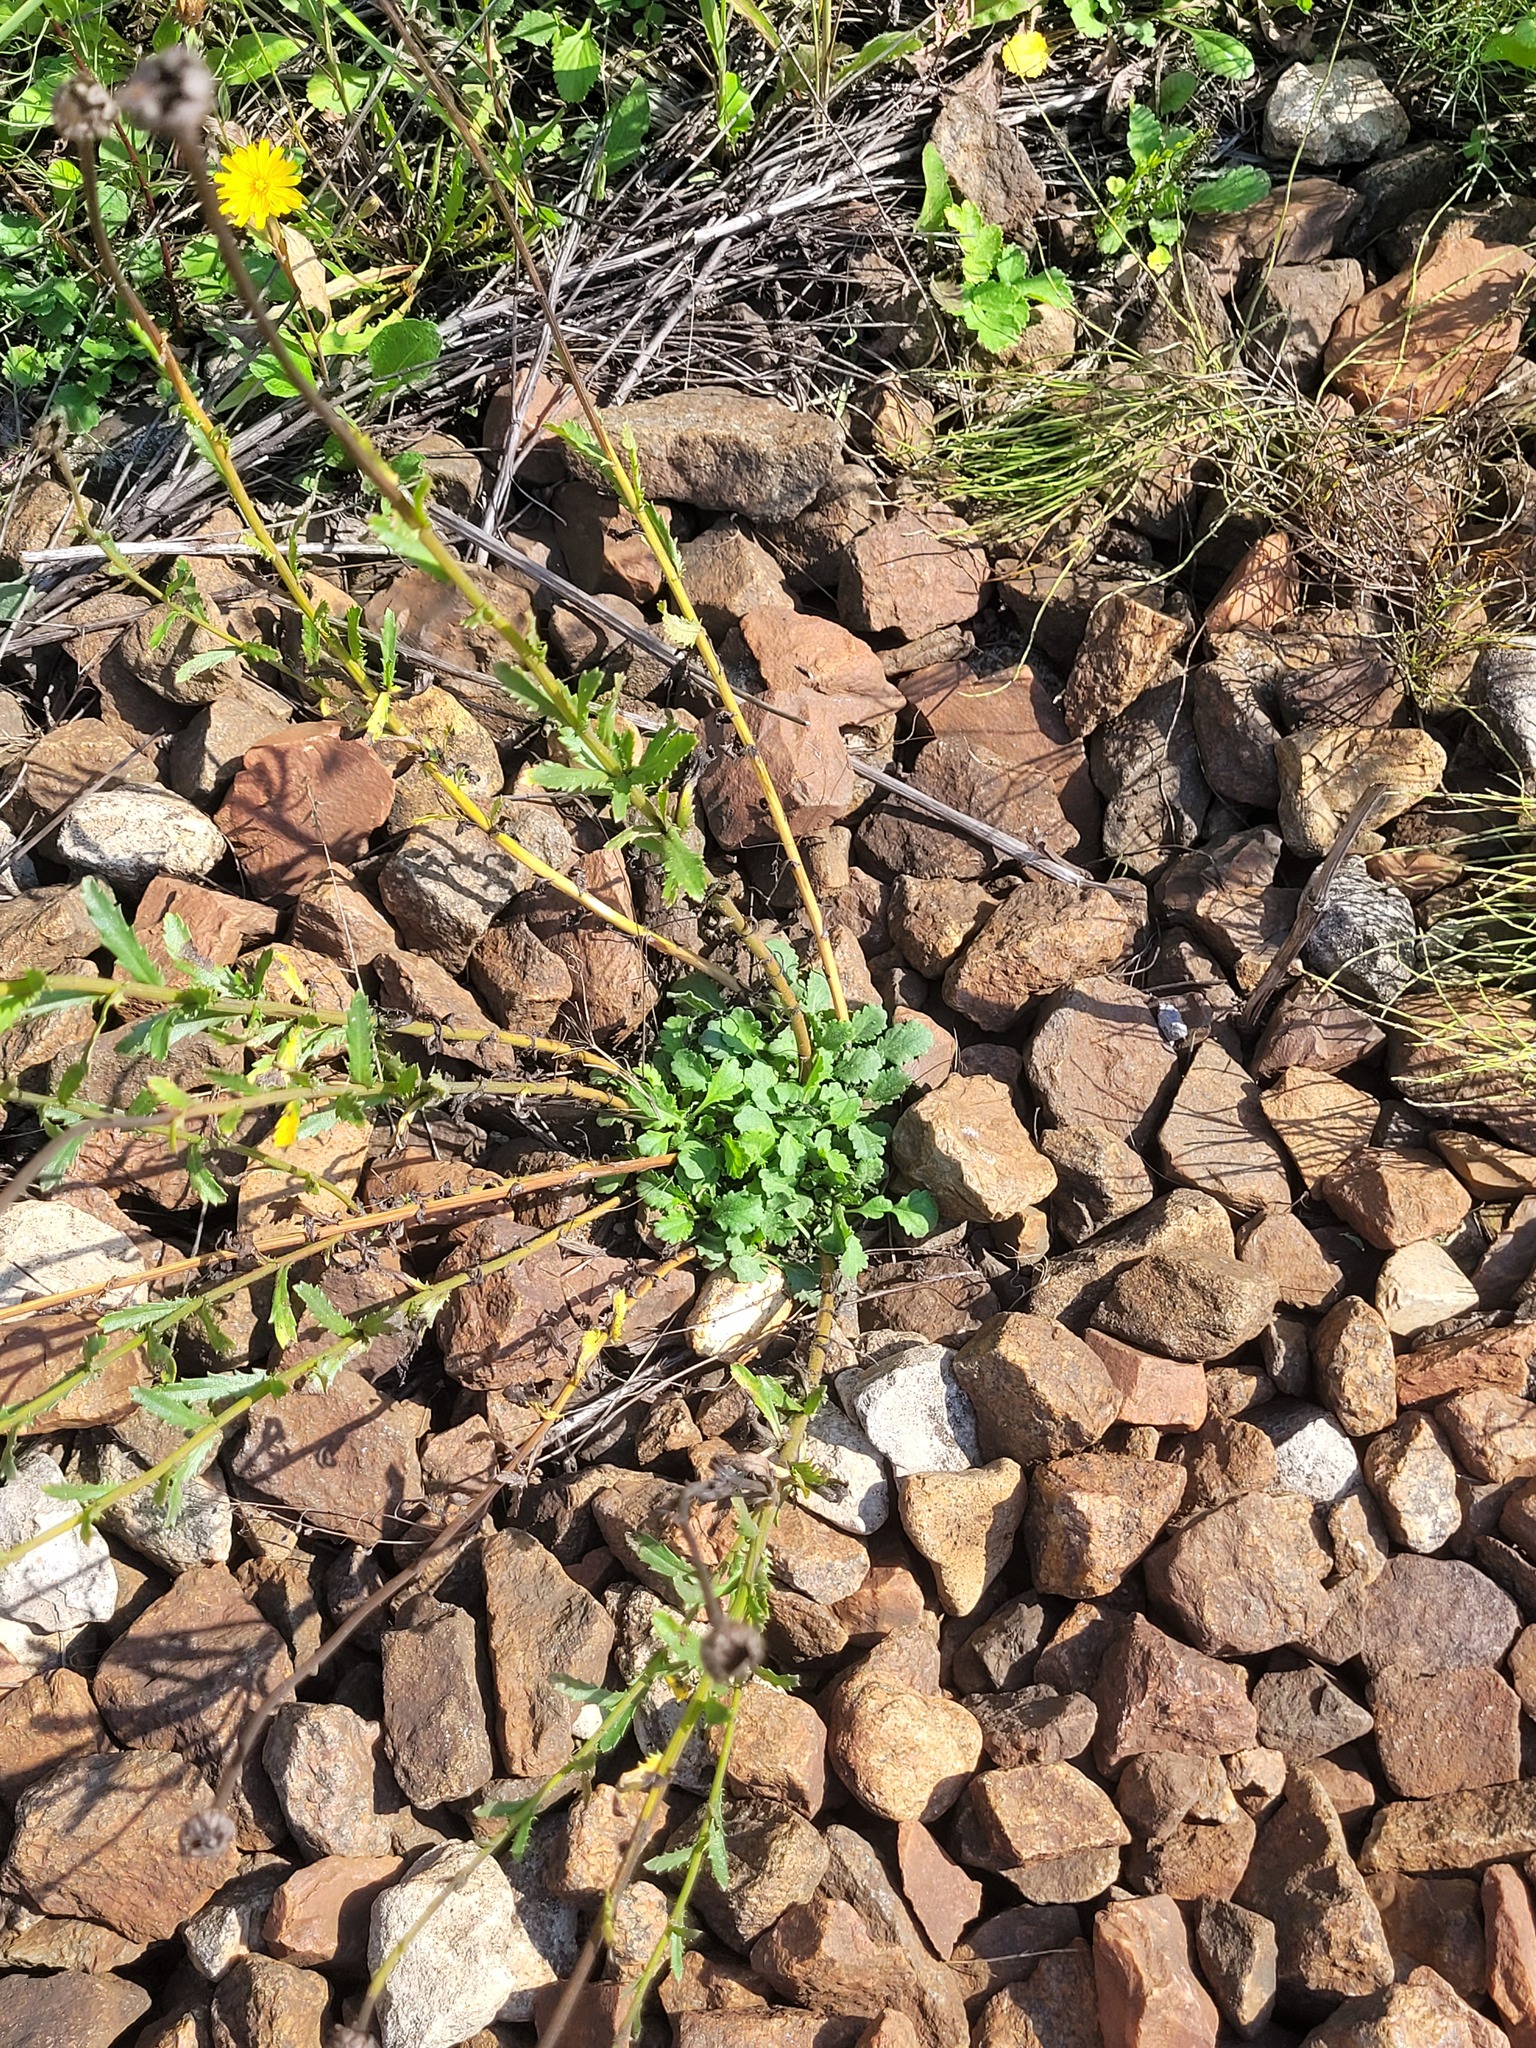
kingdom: Plantae
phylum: Tracheophyta
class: Magnoliopsida
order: Asterales
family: Asteraceae
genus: Leucanthemum
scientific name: Leucanthemum vulgare
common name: Oxeye daisy
